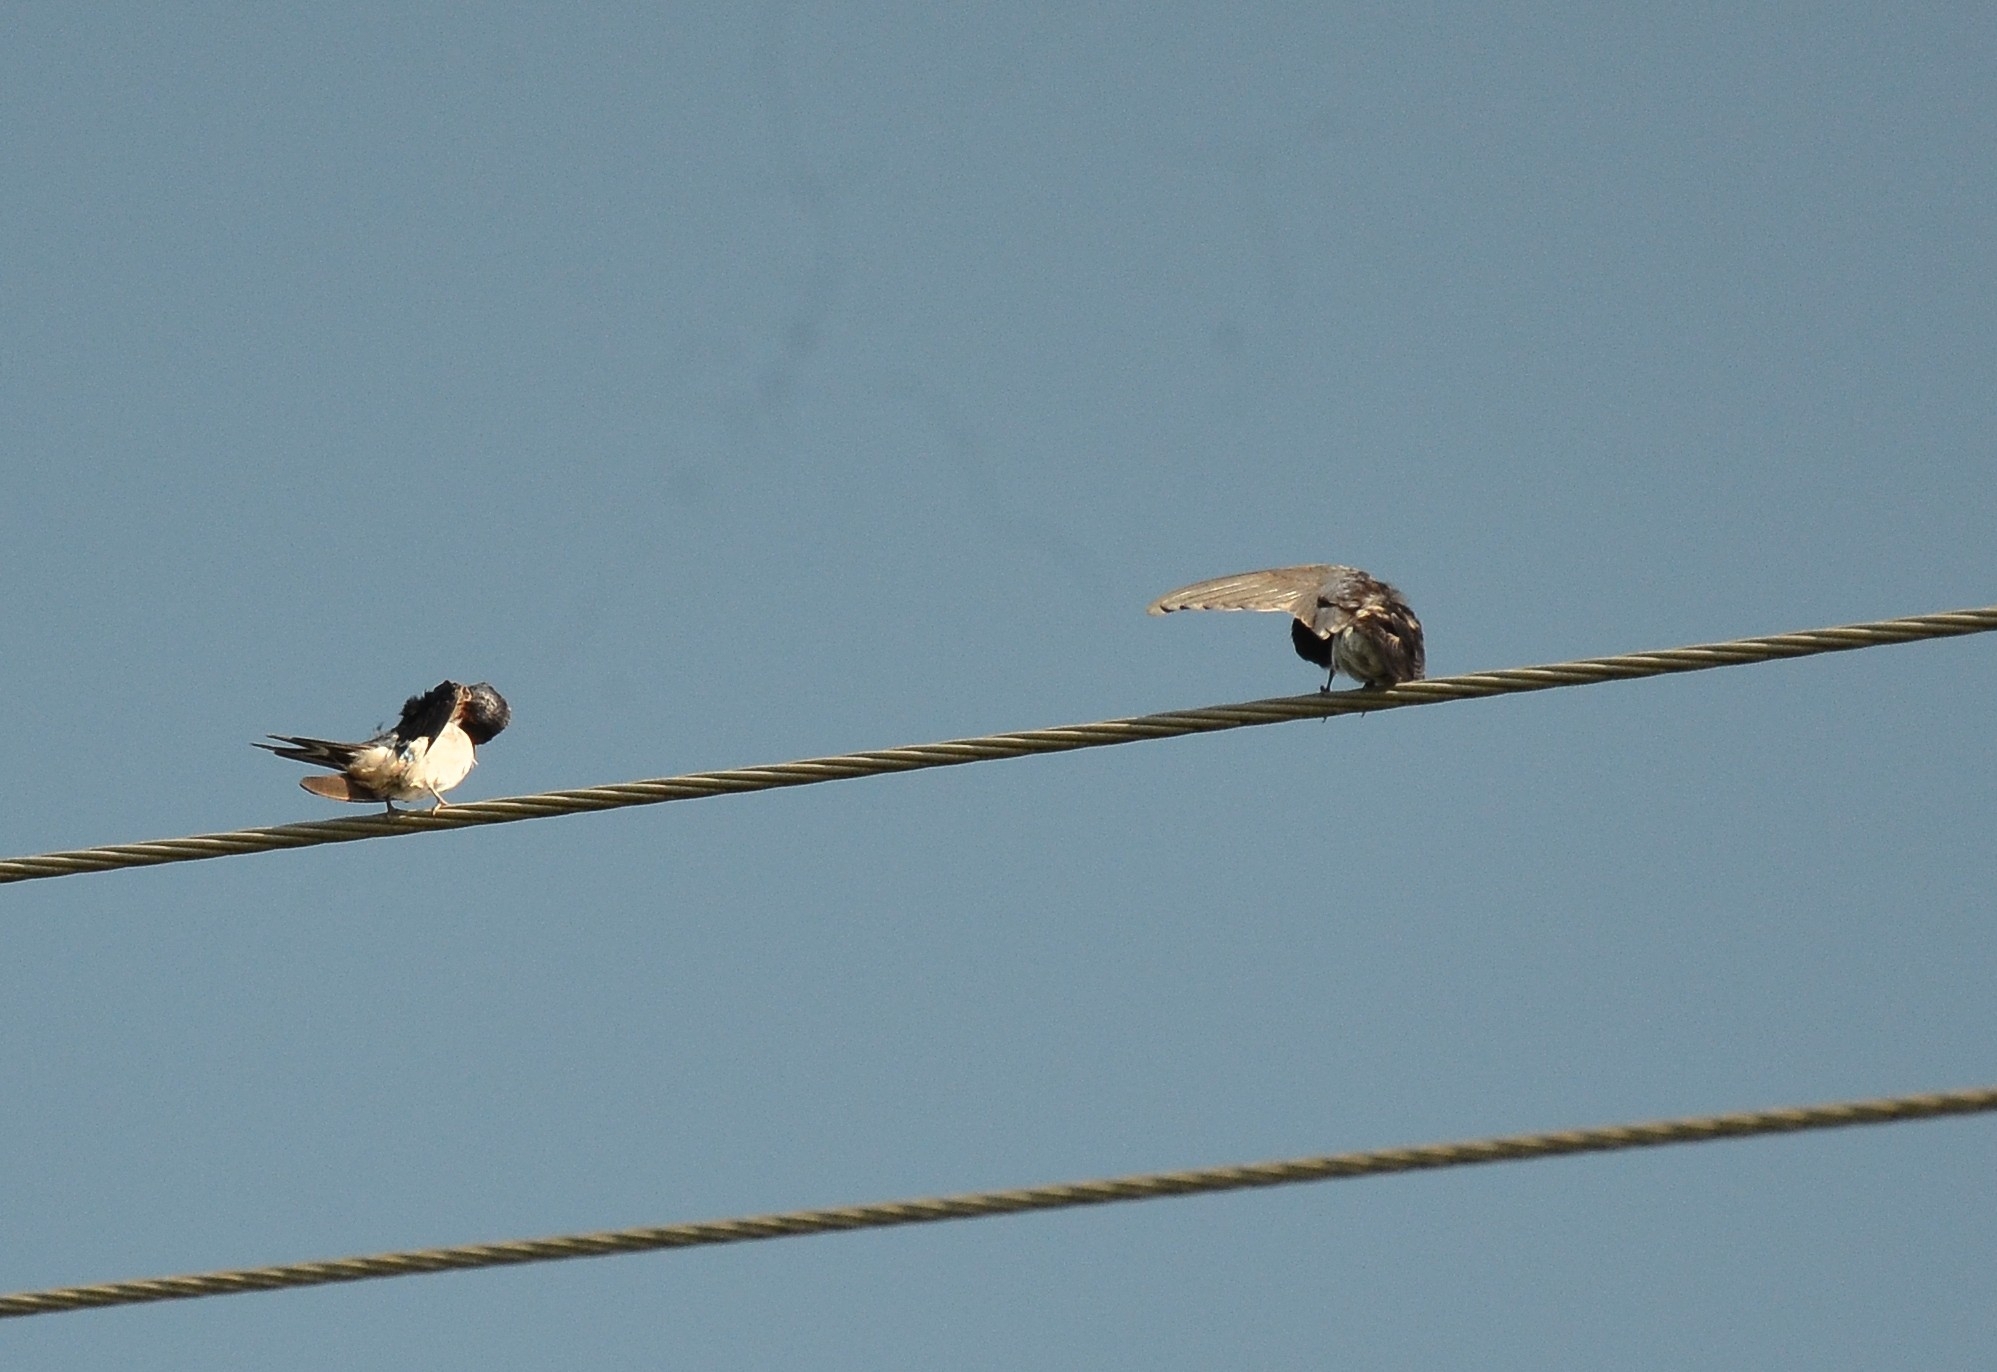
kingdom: Animalia
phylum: Chordata
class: Aves
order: Passeriformes
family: Hirundinidae
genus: Hirundo
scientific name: Hirundo rustica
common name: Barn swallow
